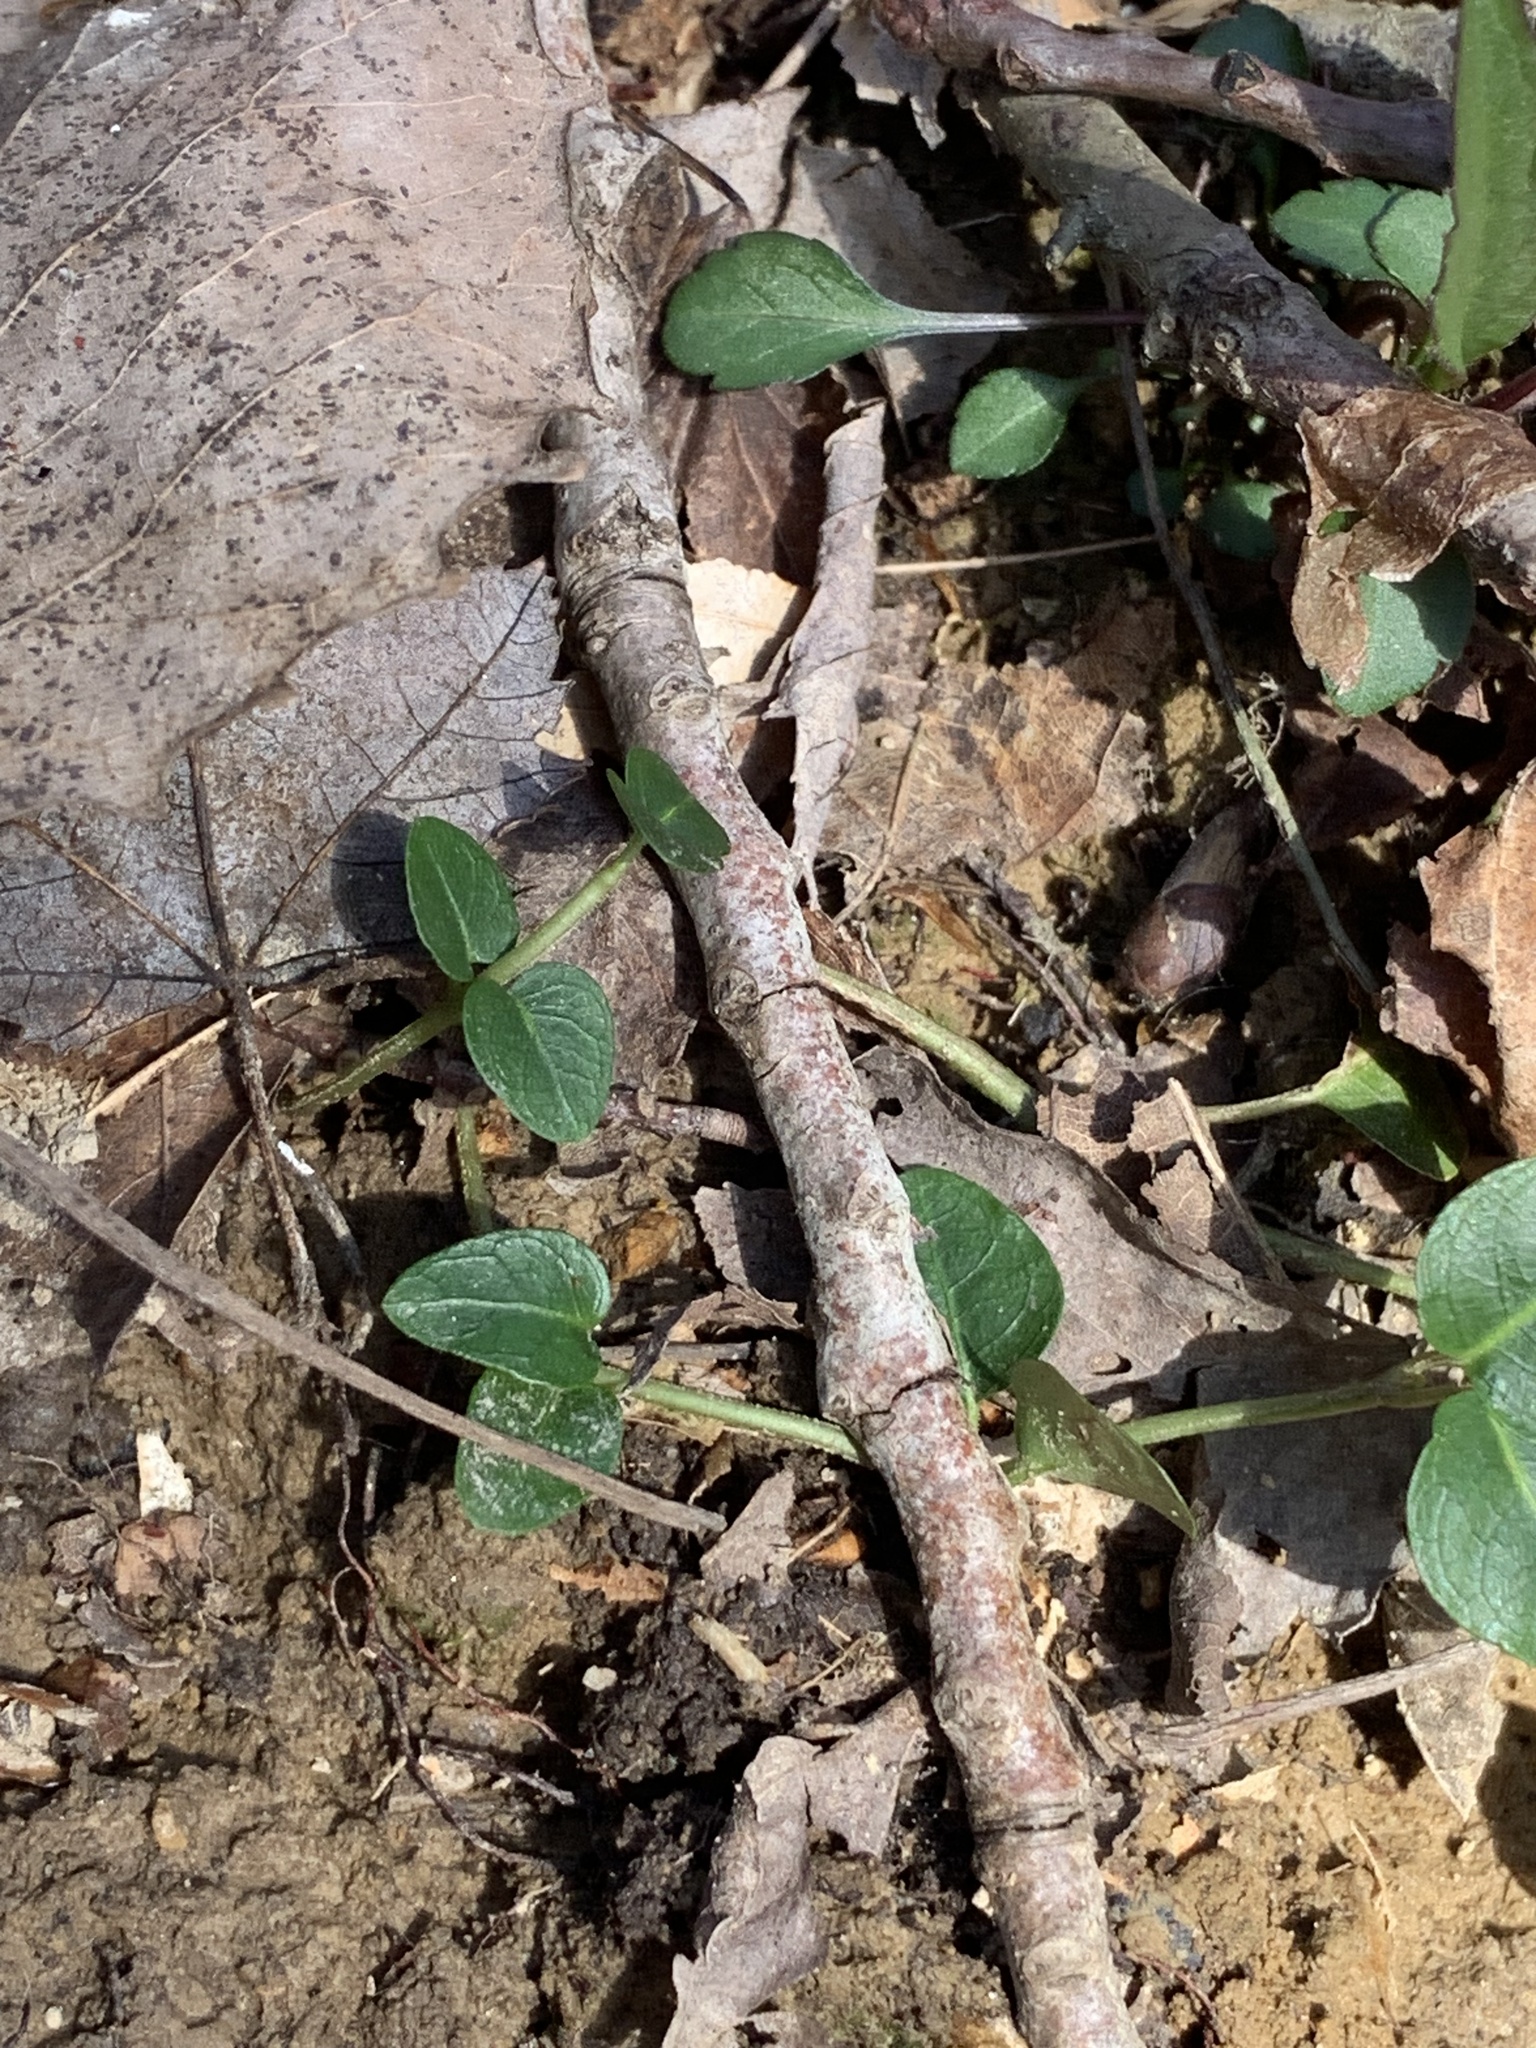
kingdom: Plantae
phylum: Tracheophyta
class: Magnoliopsida
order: Gentianales
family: Rubiaceae
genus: Mitchella
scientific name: Mitchella repens
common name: Partridge-berry
